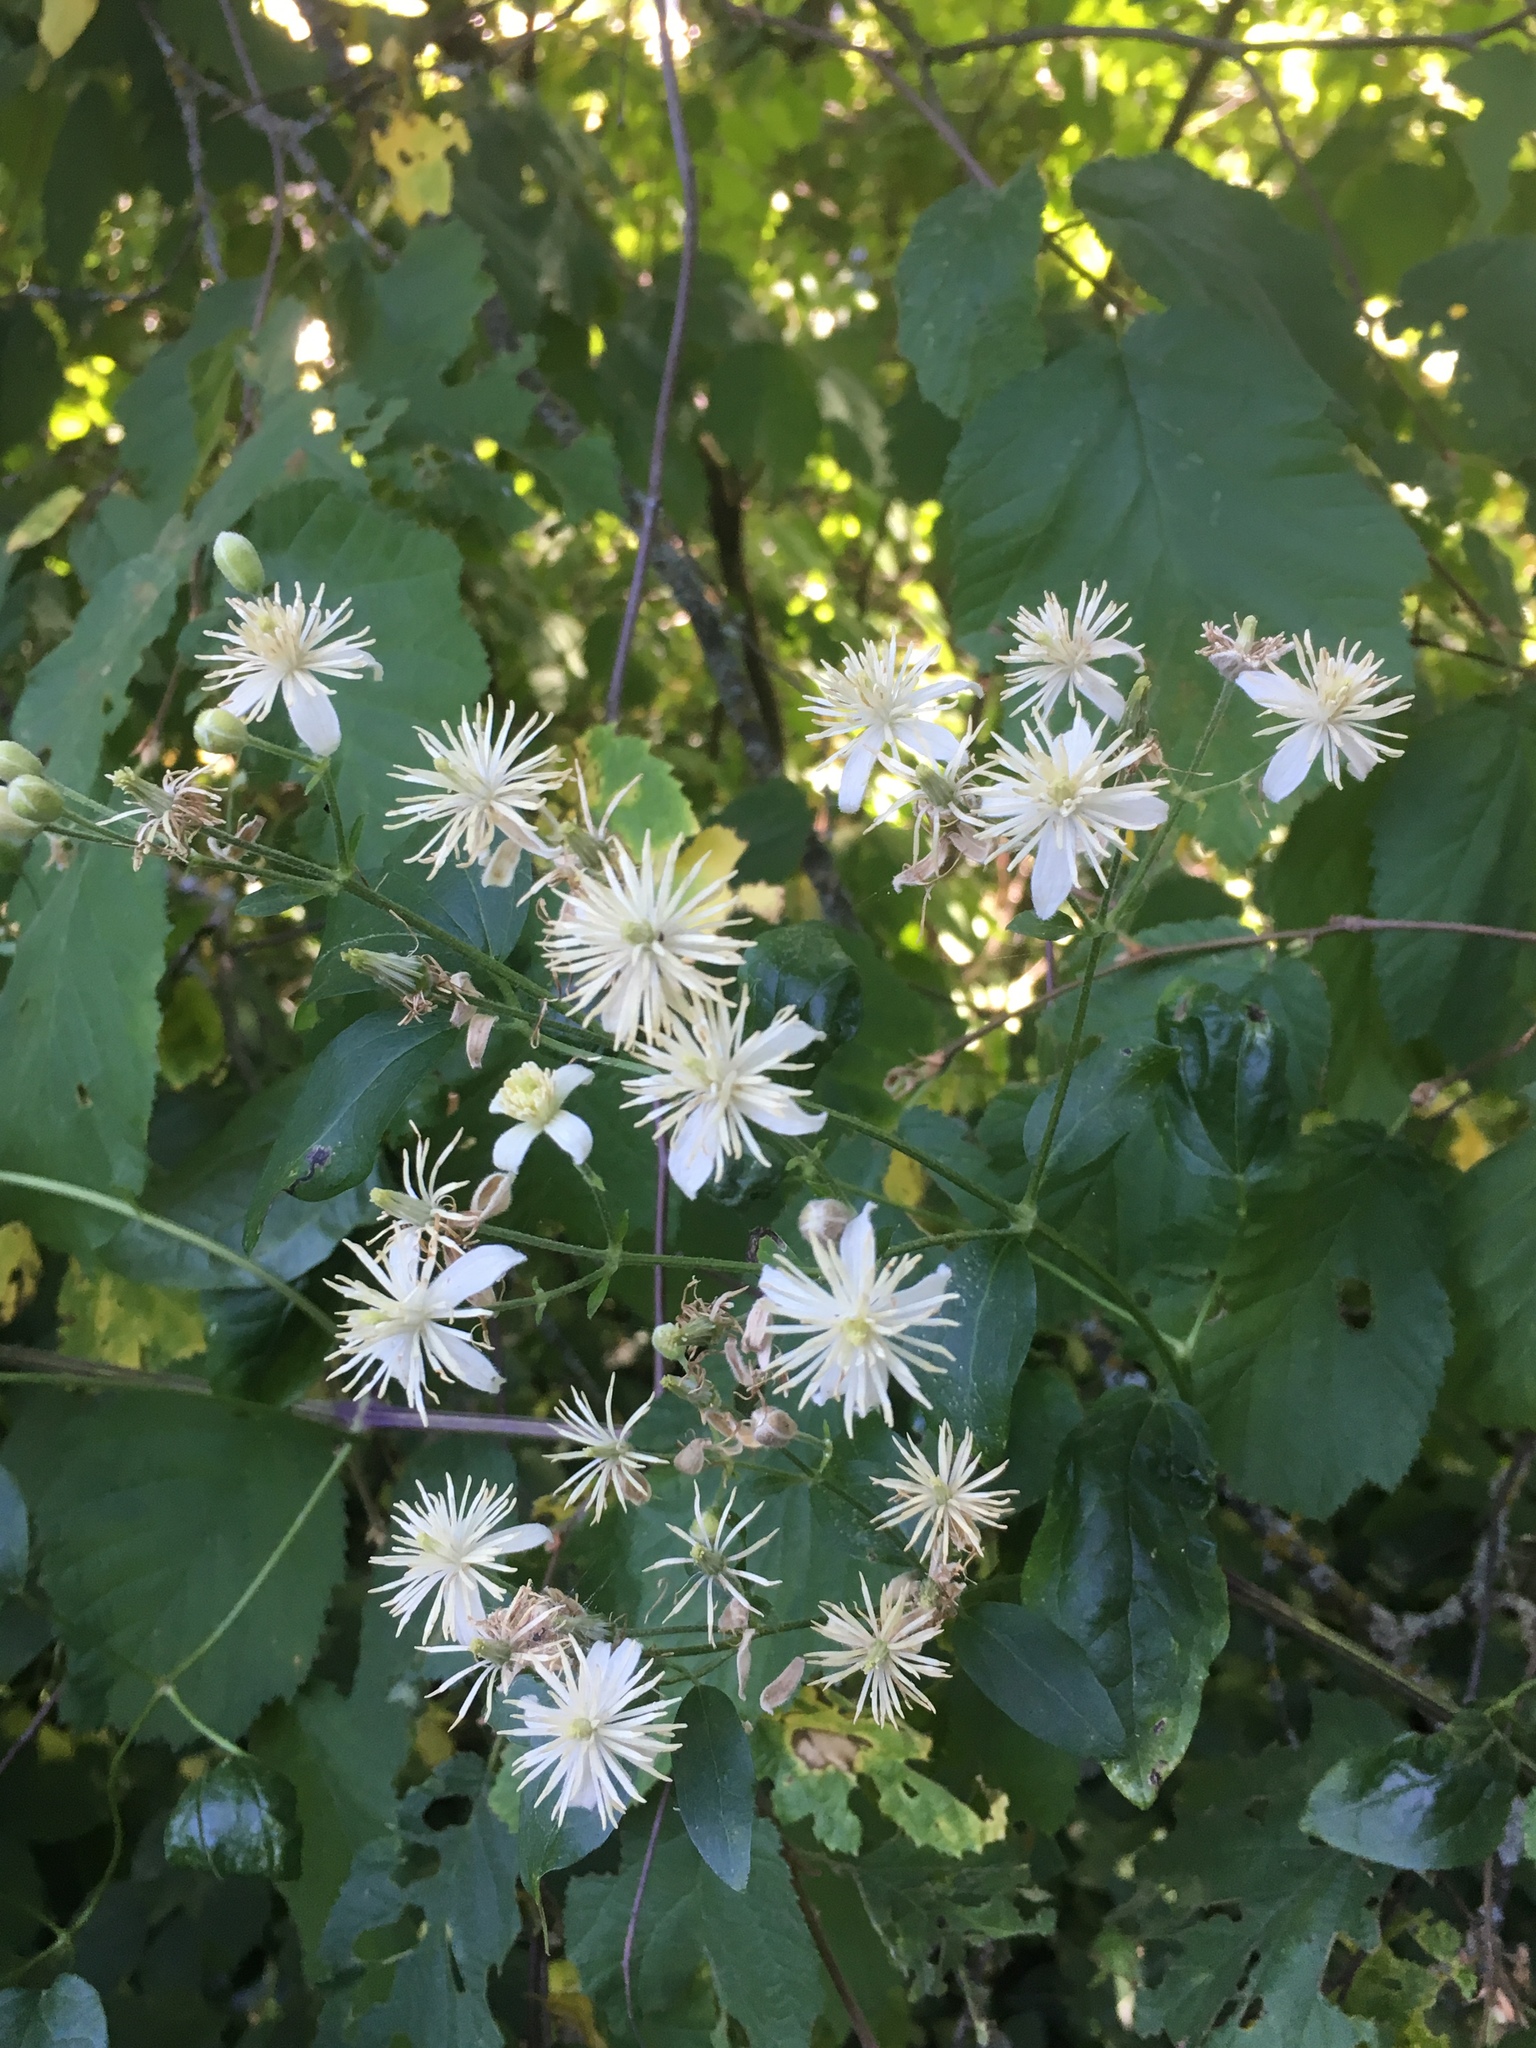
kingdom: Plantae
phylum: Tracheophyta
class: Magnoliopsida
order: Ranunculales
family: Ranunculaceae
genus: Clematis
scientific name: Clematis vitalba
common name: Evergreen clematis
